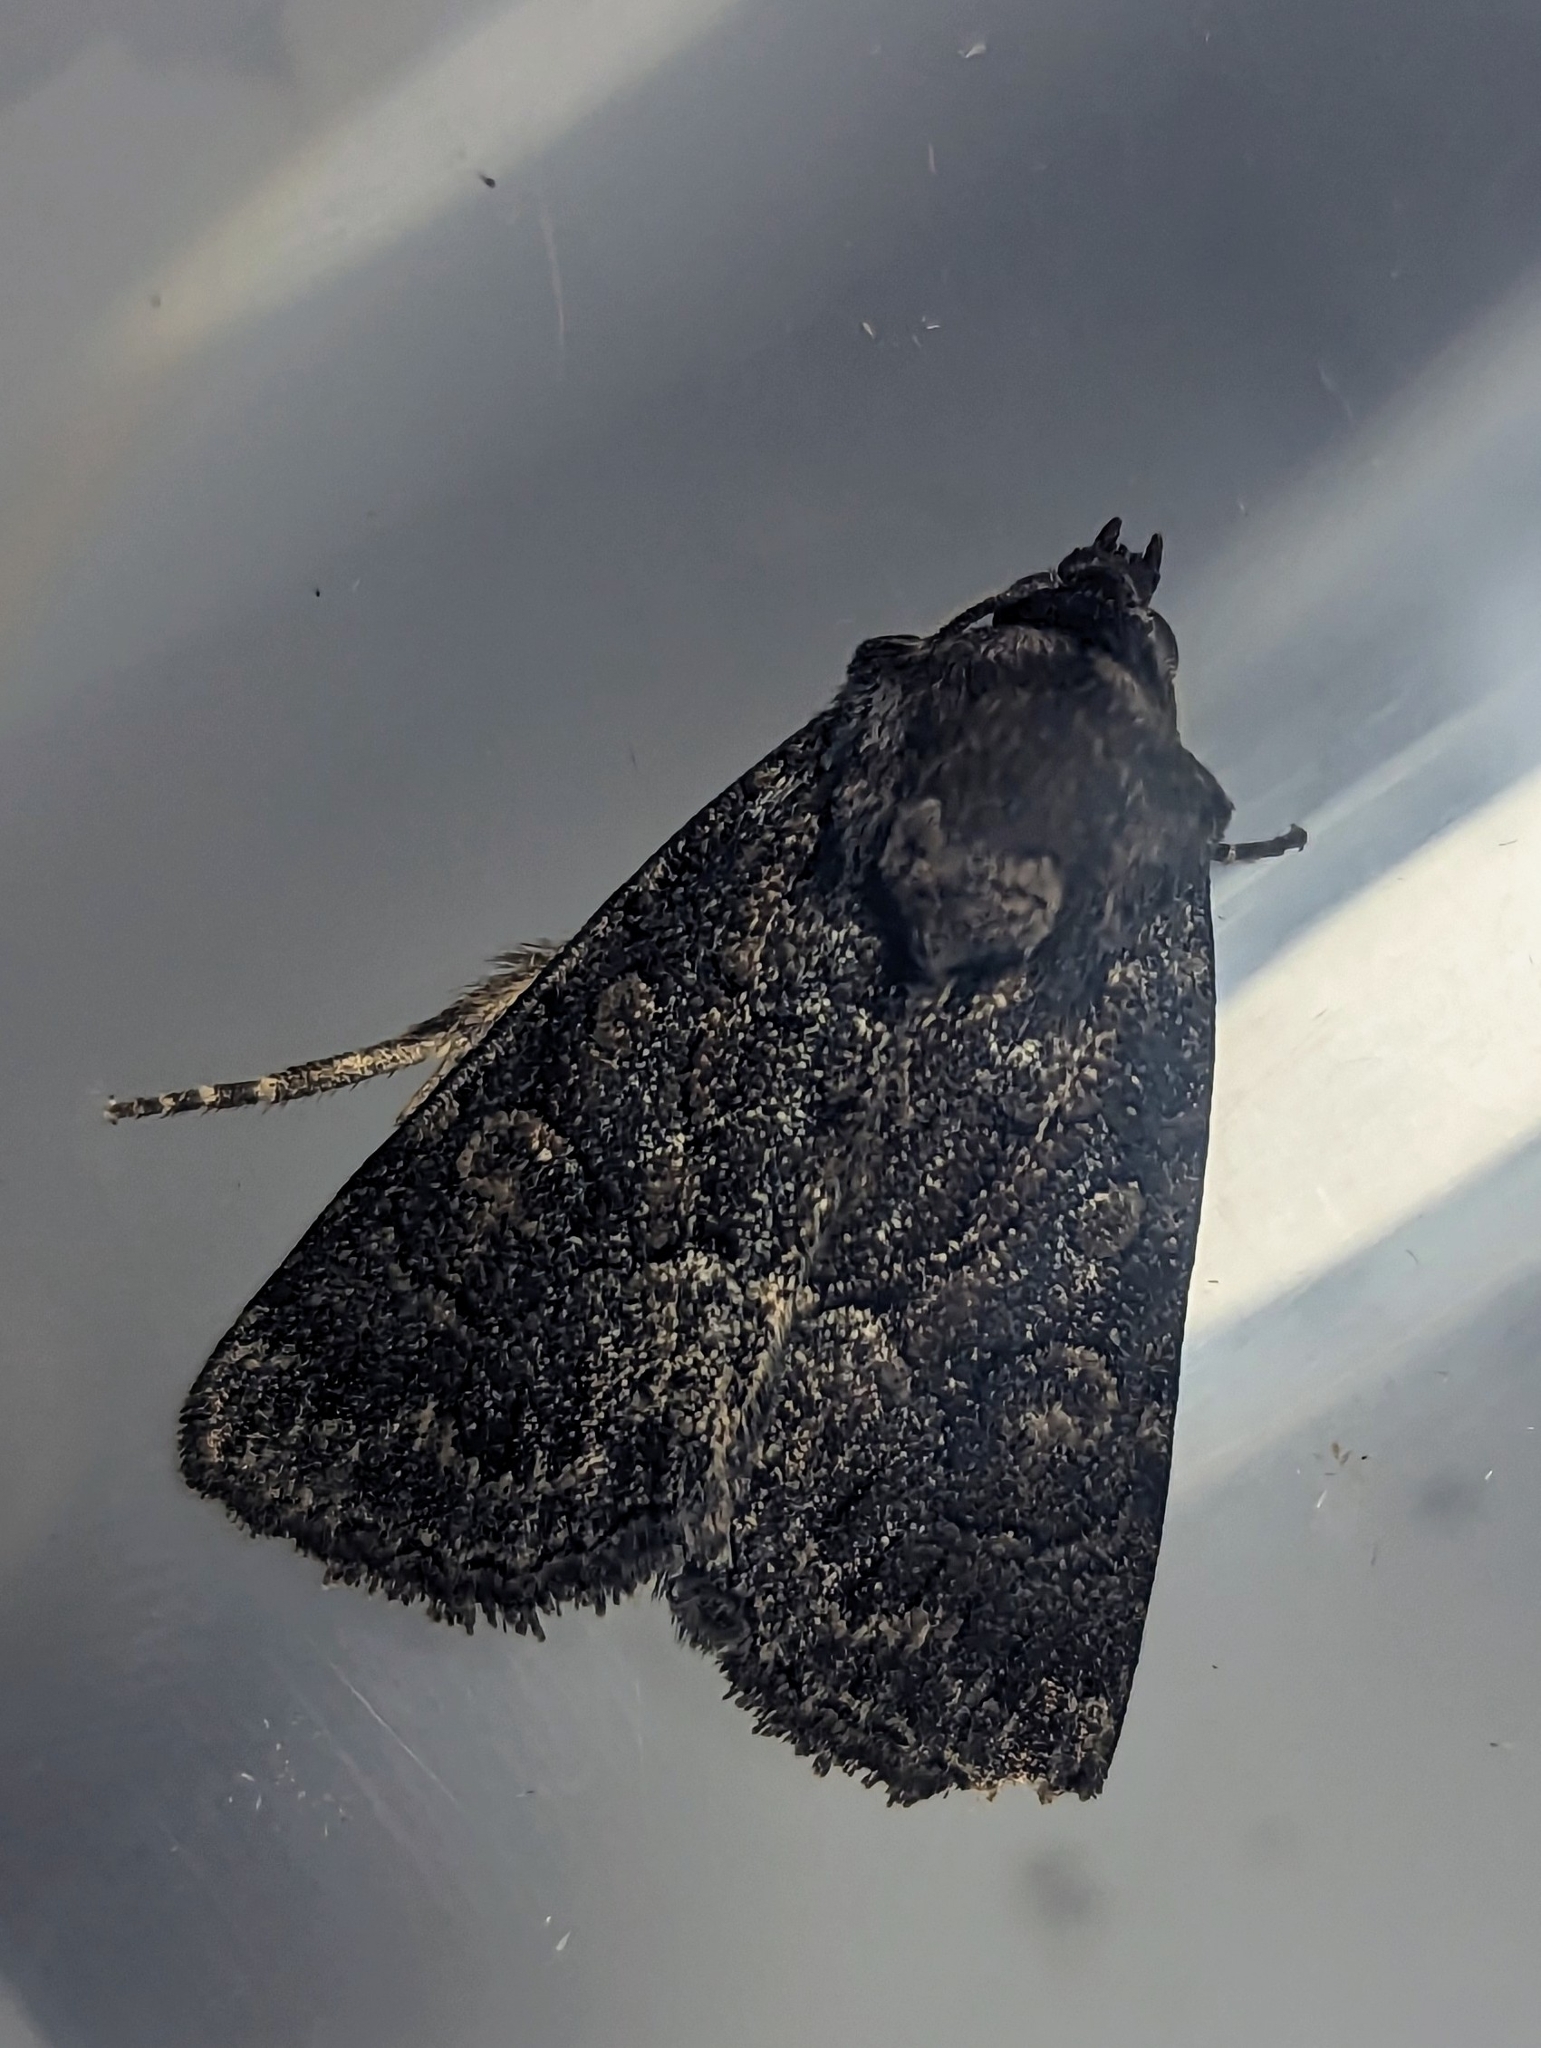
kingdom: Animalia
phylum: Arthropoda
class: Insecta
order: Lepidoptera
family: Noctuidae
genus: Thalpophila
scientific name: Thalpophila matura
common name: Straw underwing
